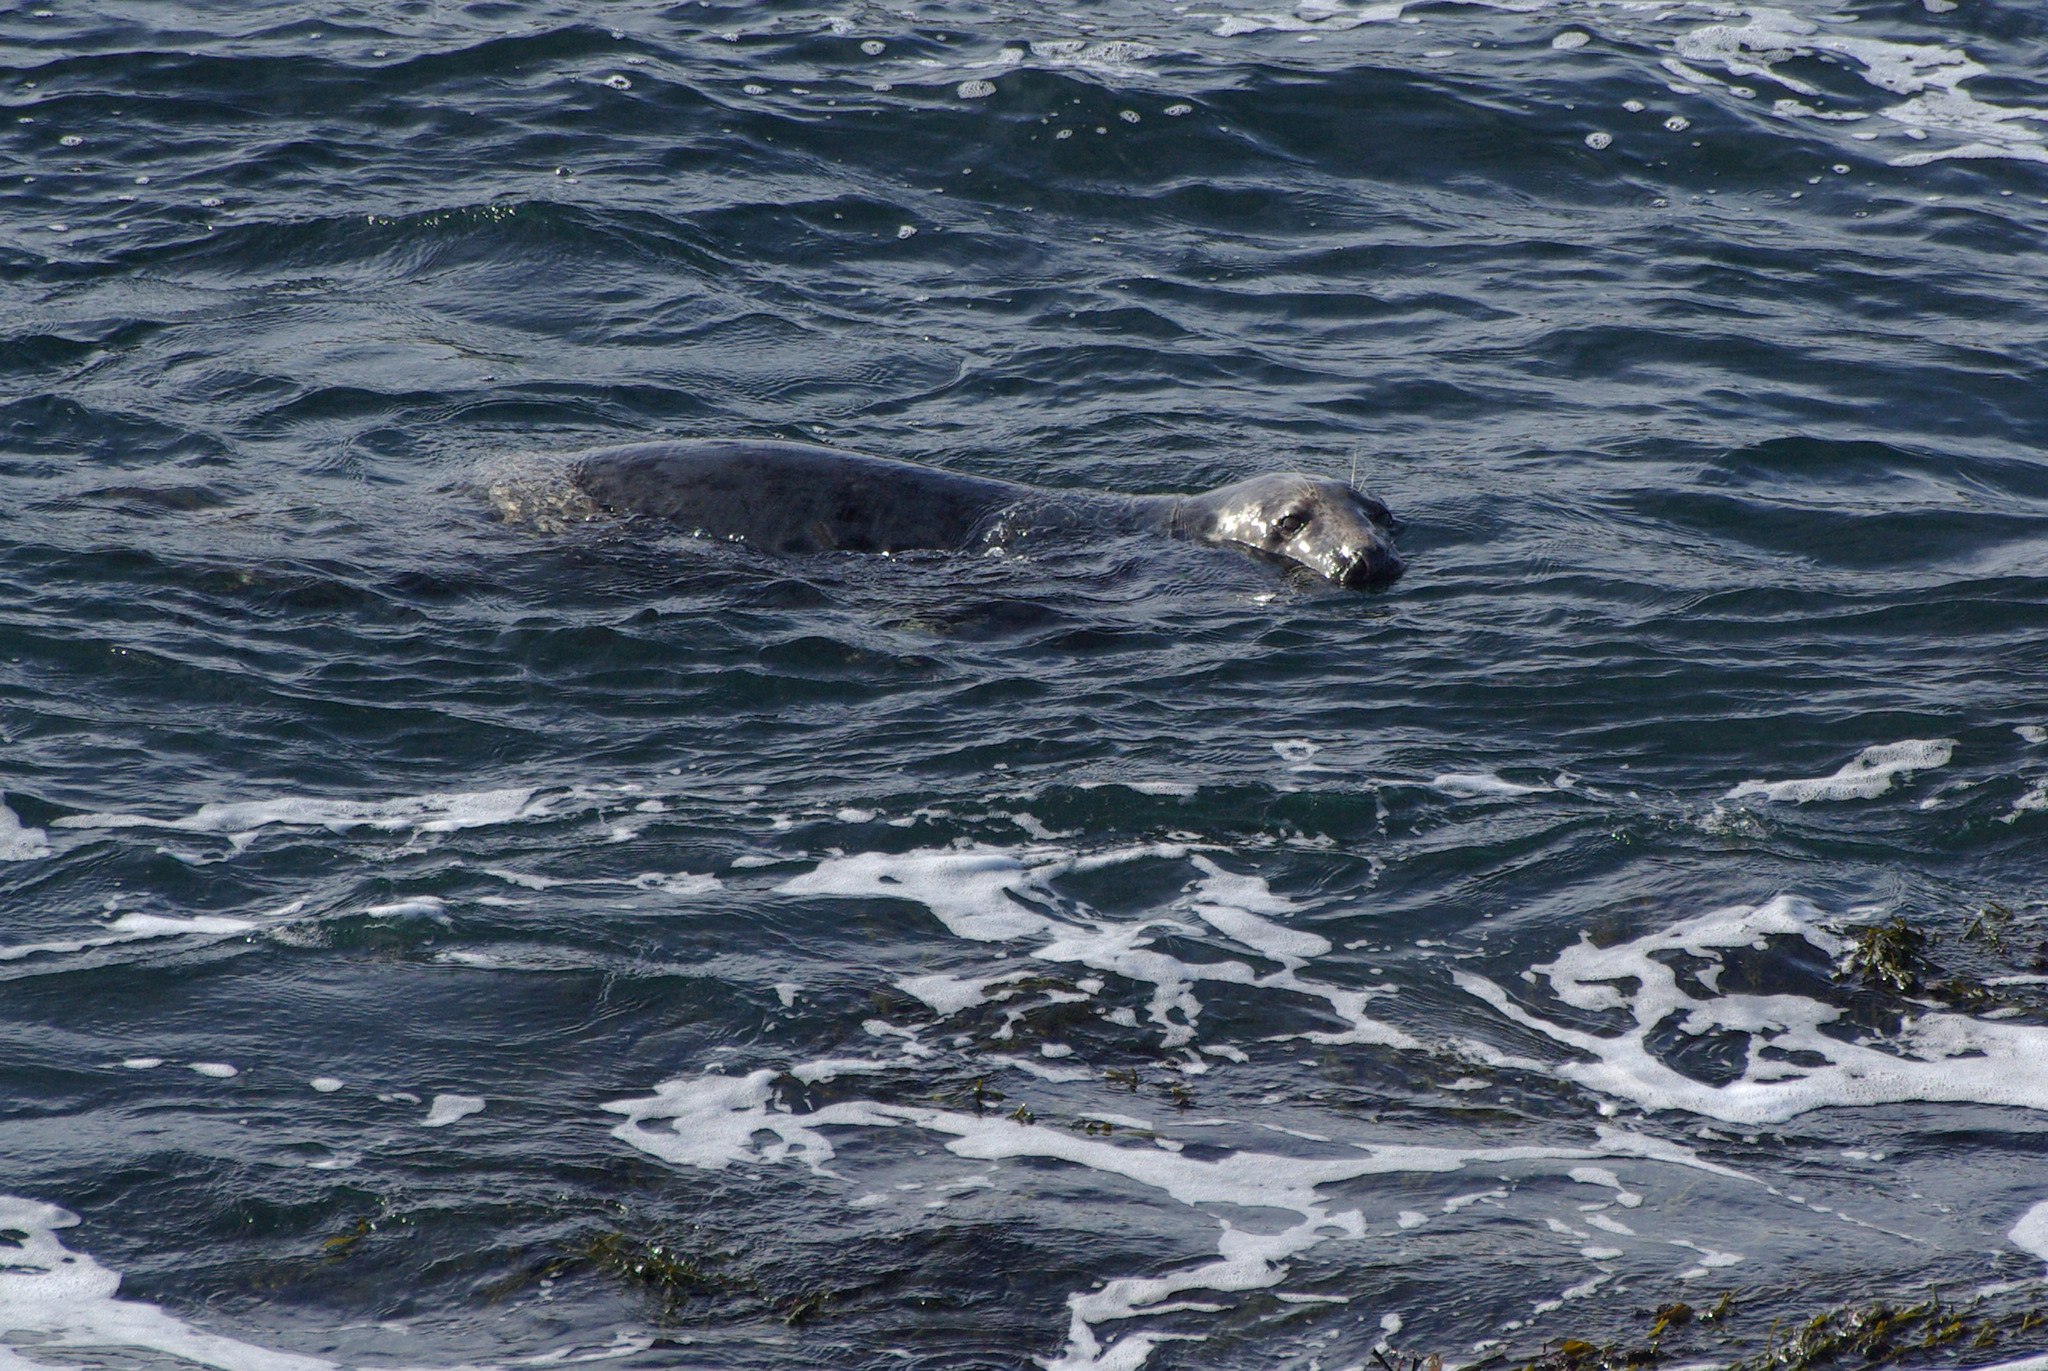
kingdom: Animalia
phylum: Chordata
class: Mammalia
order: Carnivora
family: Phocidae
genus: Halichoerus
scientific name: Halichoerus grypus
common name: Grey seal
